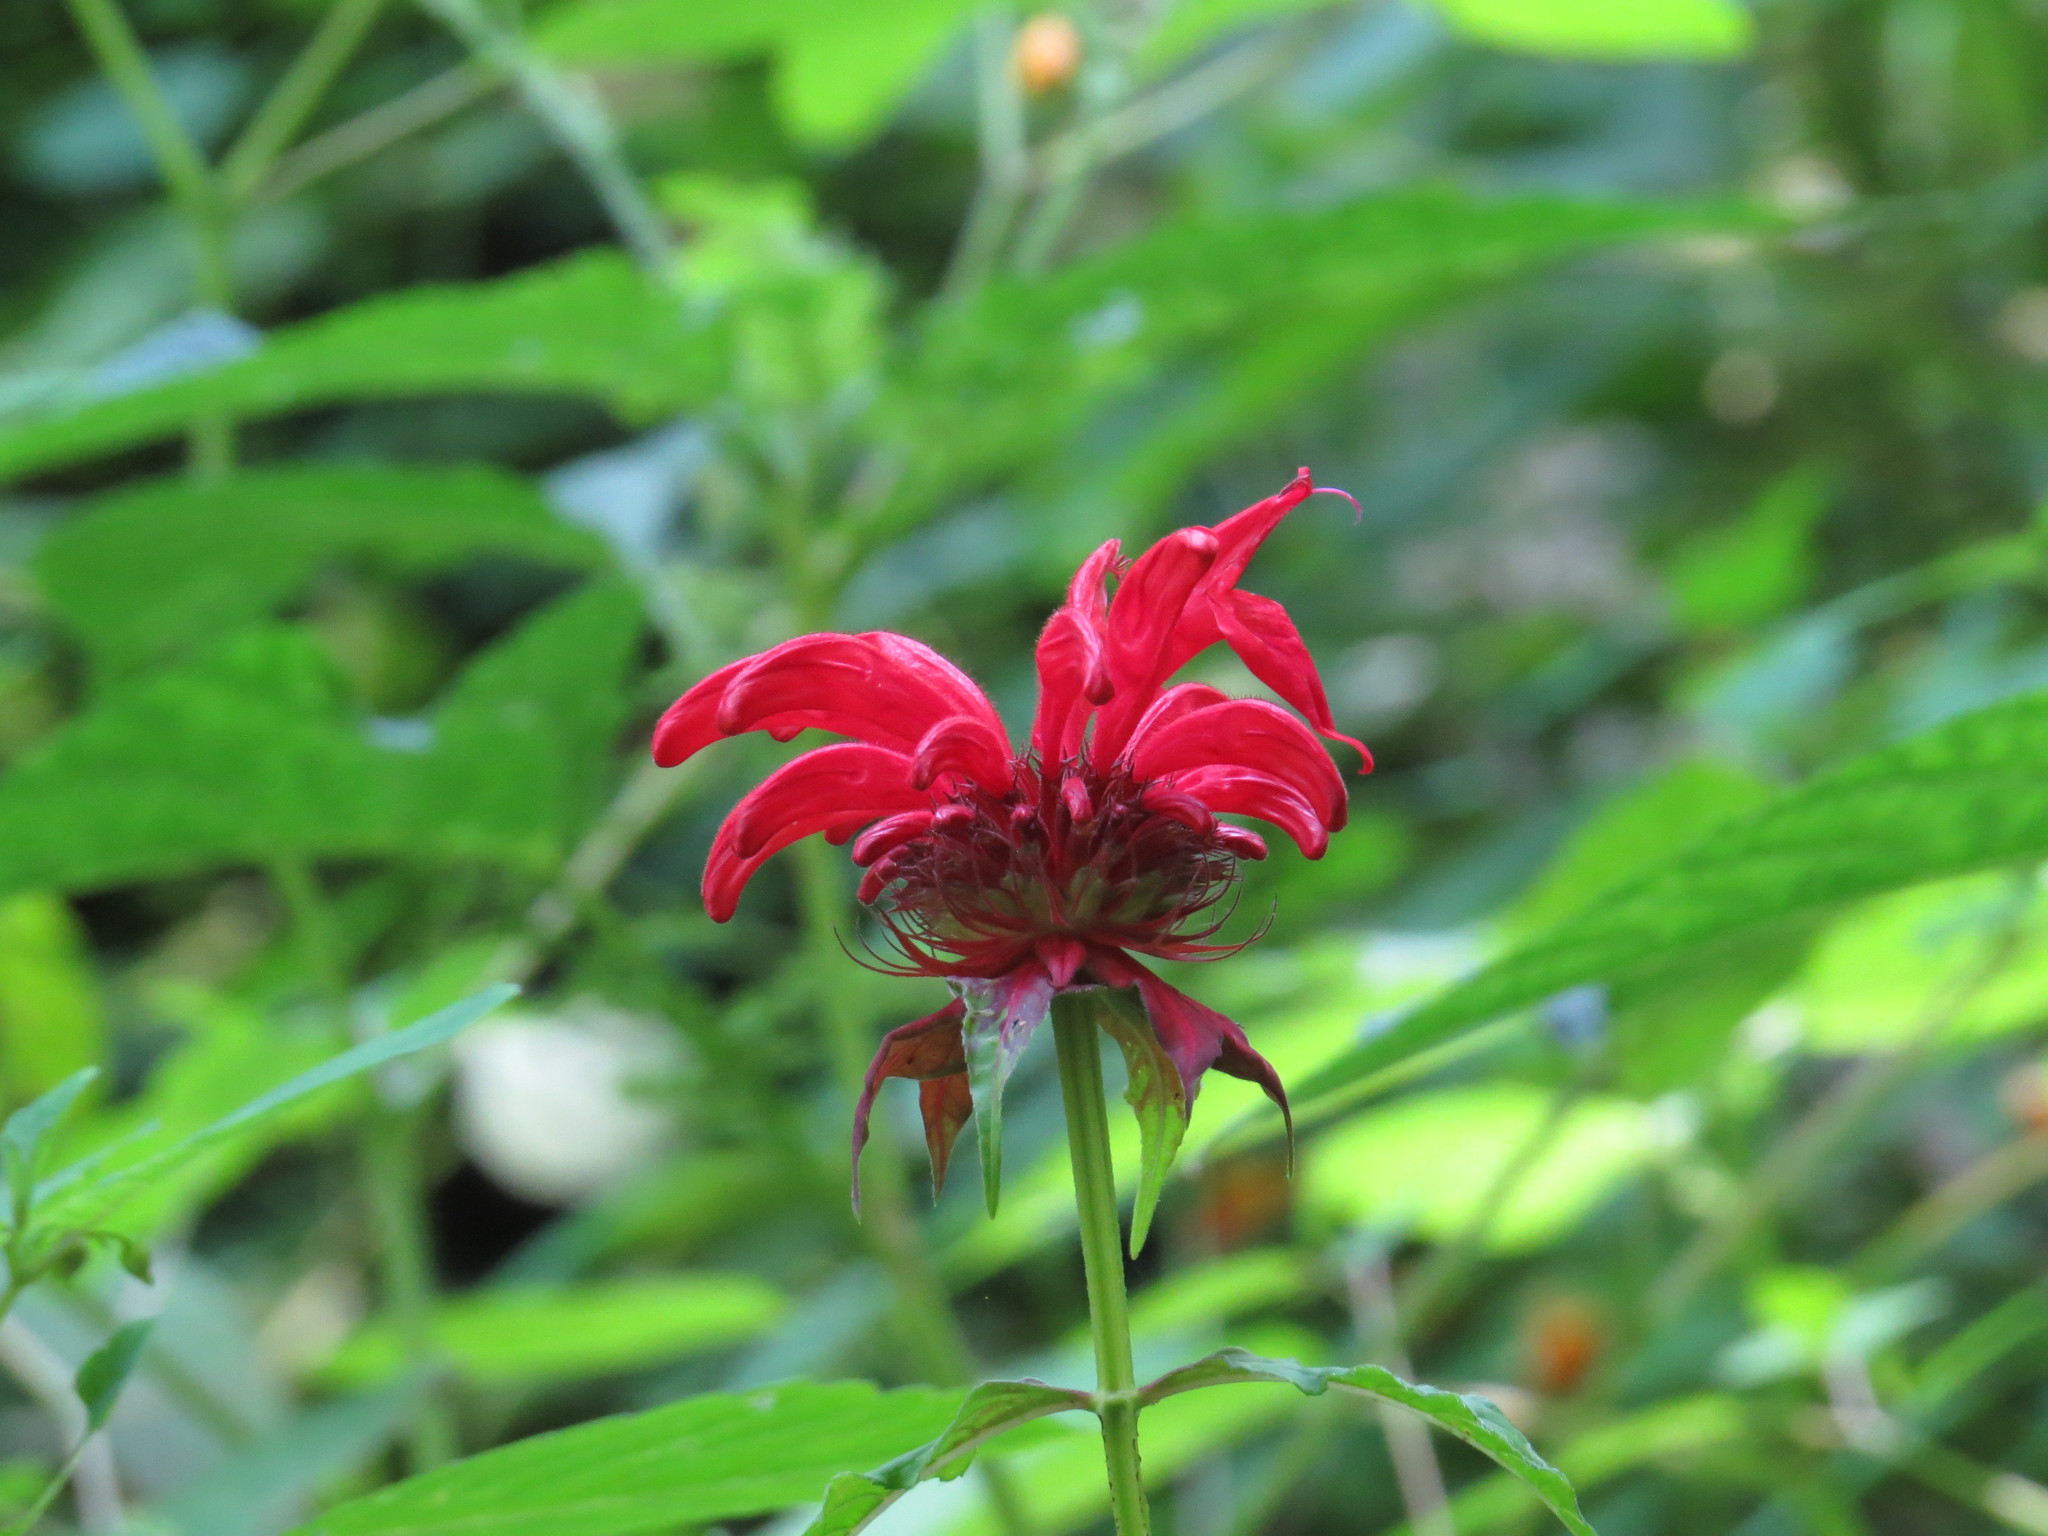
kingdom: Plantae
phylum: Tracheophyta
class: Magnoliopsida
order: Lamiales
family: Lamiaceae
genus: Monarda
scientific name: Monarda didyma
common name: Beebalm
